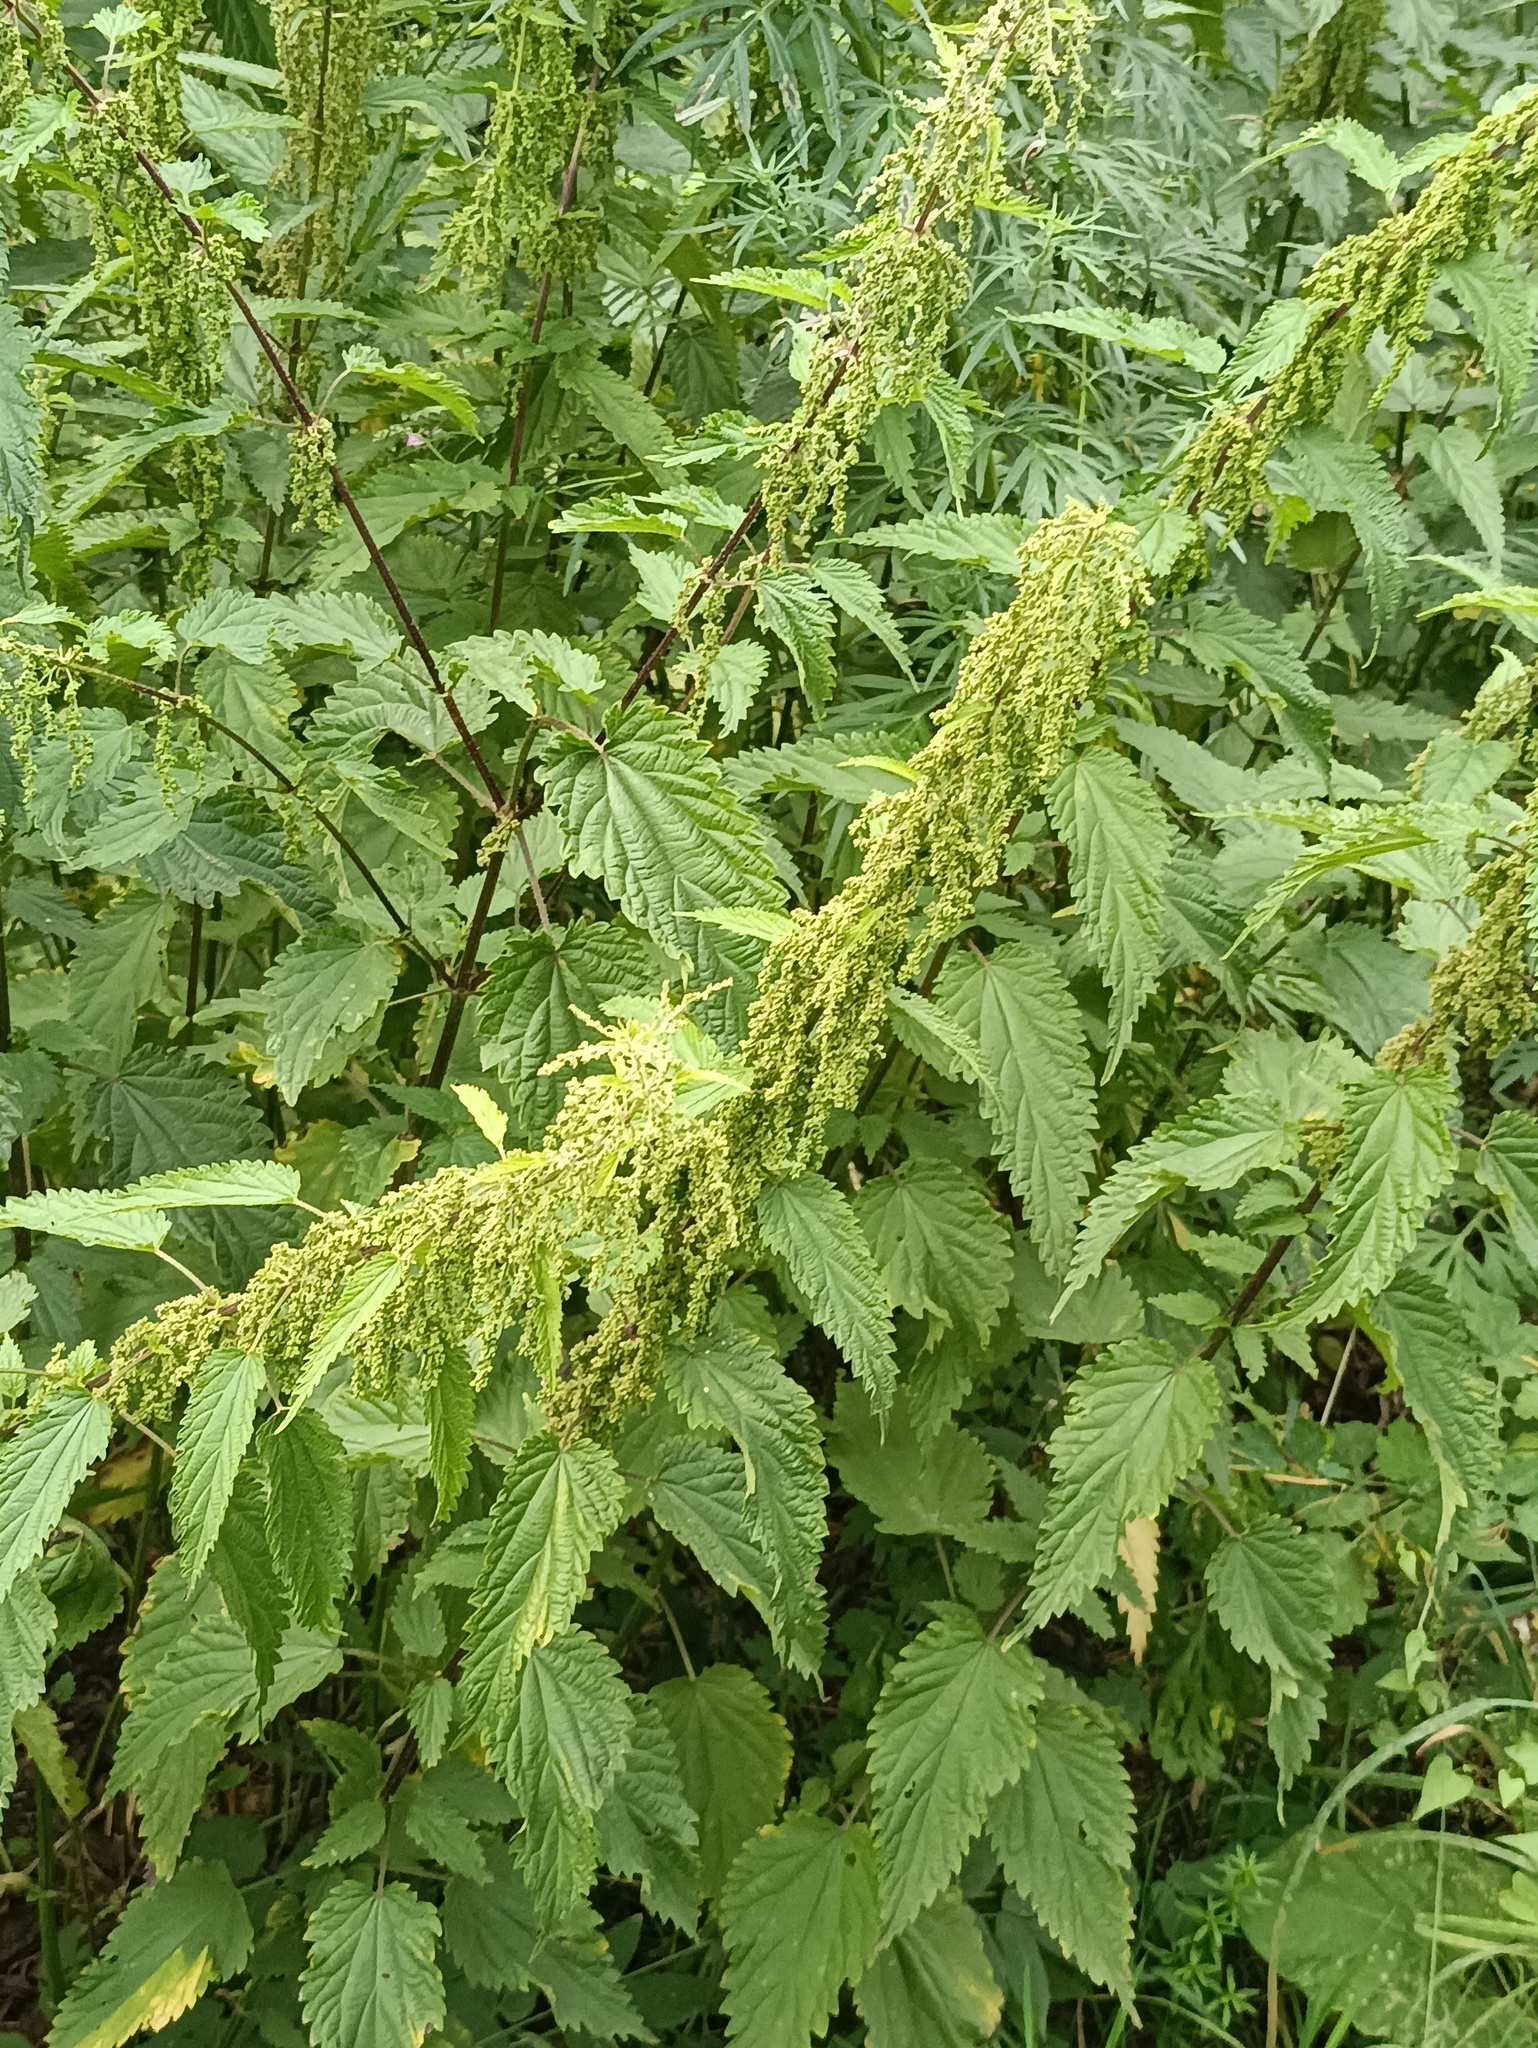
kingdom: Plantae
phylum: Tracheophyta
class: Magnoliopsida
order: Rosales
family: Urticaceae
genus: Urtica
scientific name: Urtica dioica
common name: Common nettle
